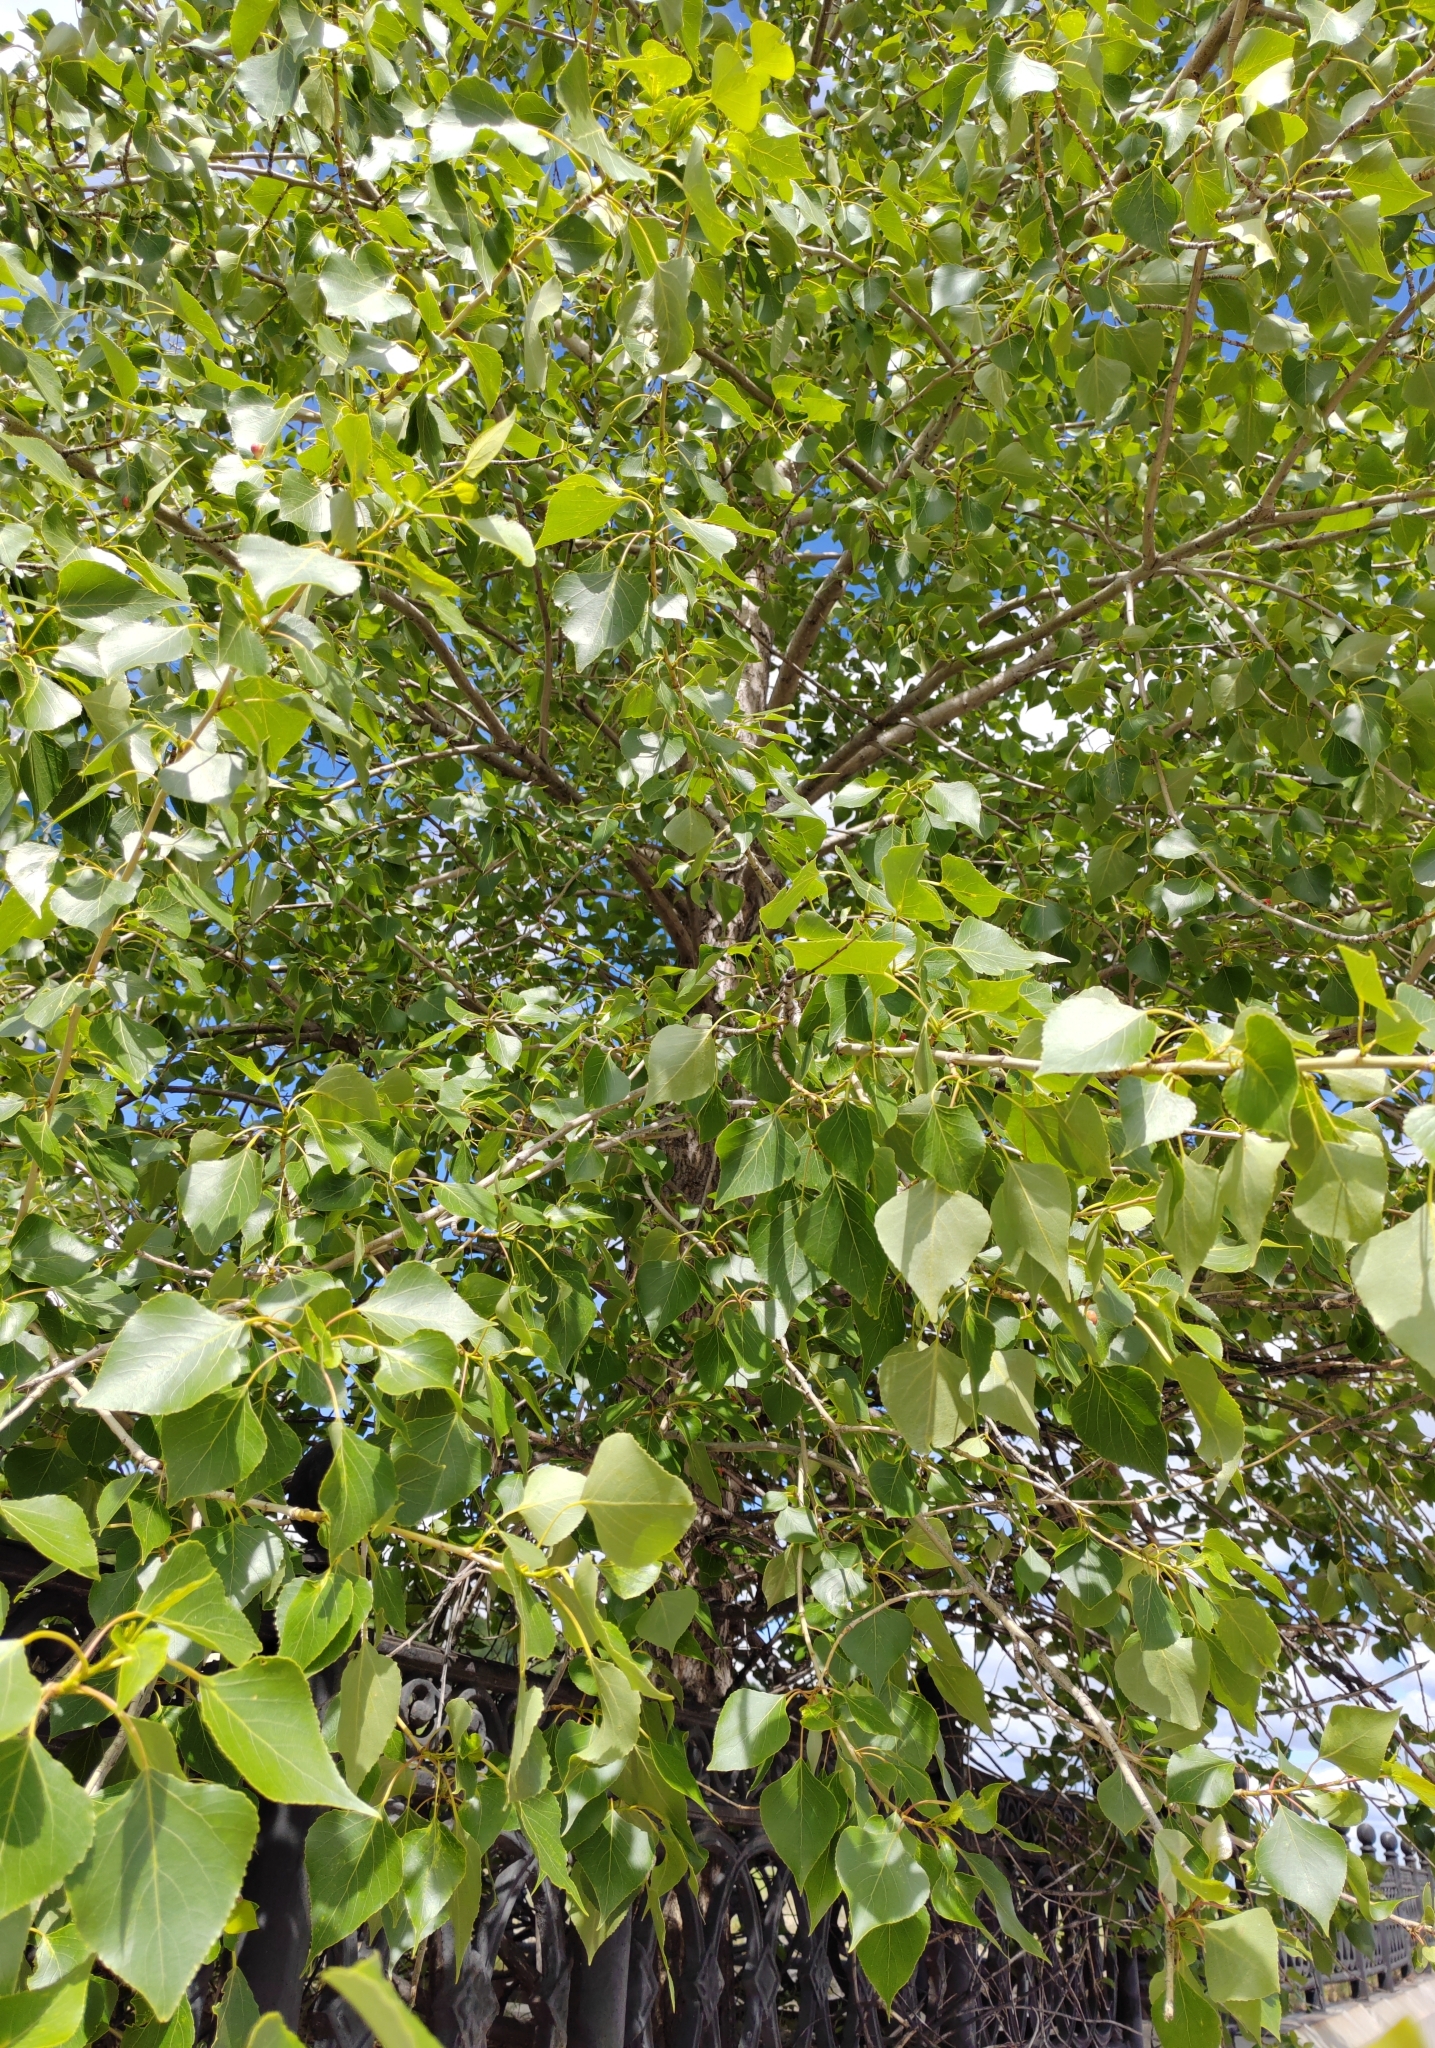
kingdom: Plantae
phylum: Tracheophyta
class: Magnoliopsida
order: Malpighiales
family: Salicaceae
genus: Populus
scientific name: Populus sibirica
